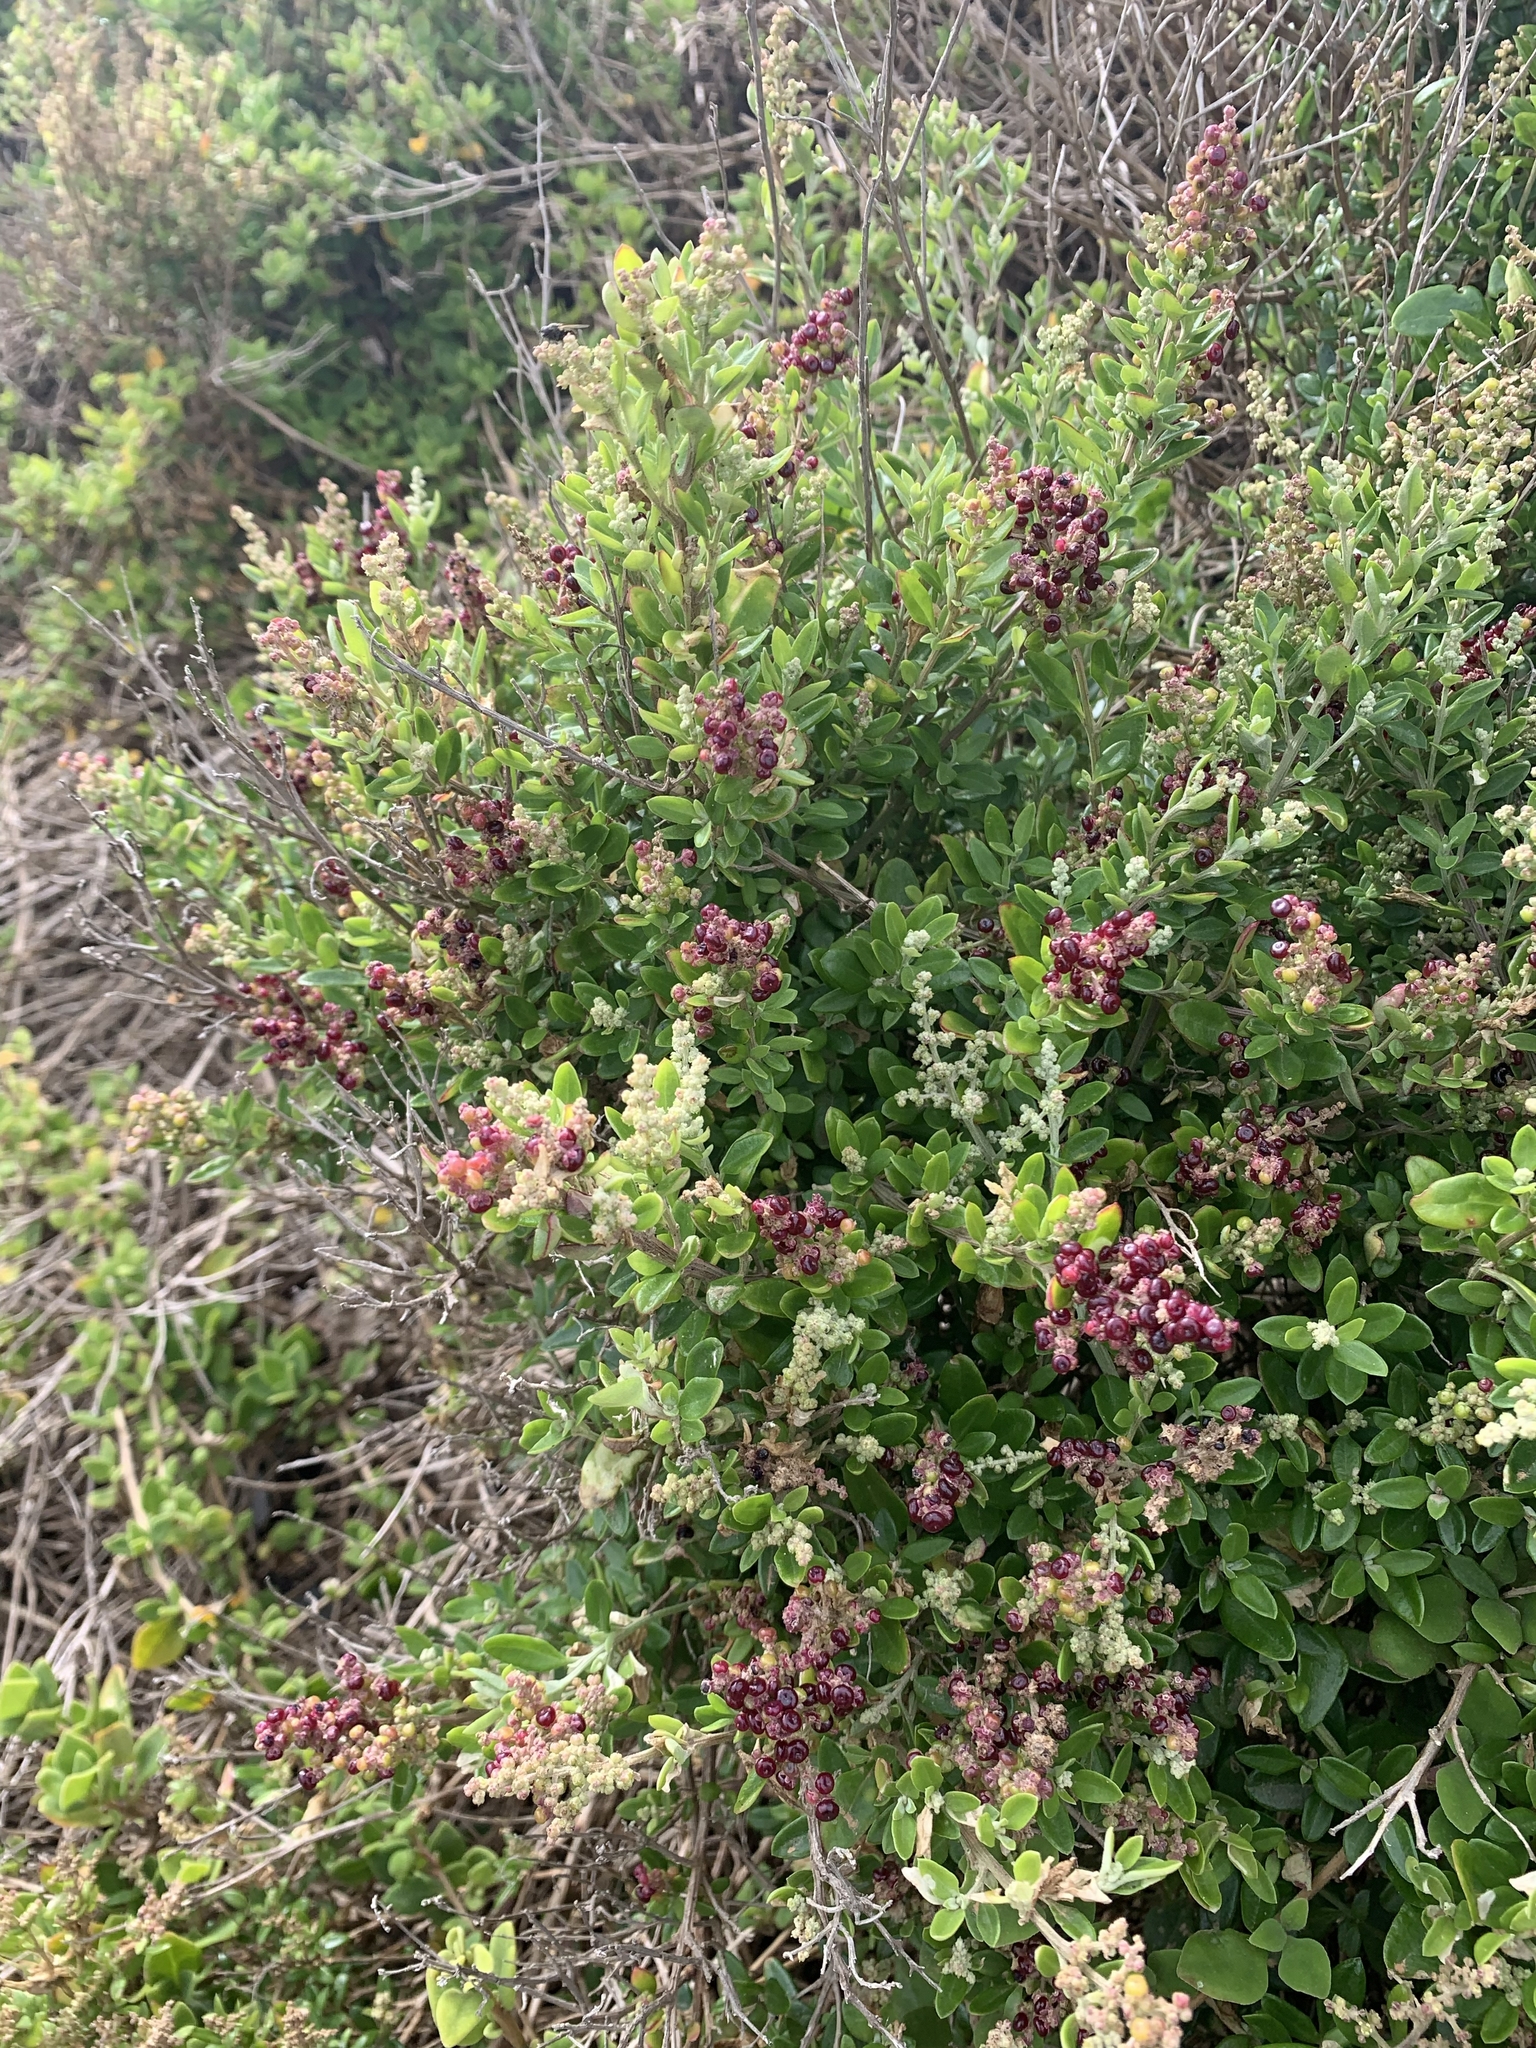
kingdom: Plantae
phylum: Tracheophyta
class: Magnoliopsida
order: Caryophyllales
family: Amaranthaceae
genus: Chenopodium
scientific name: Chenopodium candolleanum
